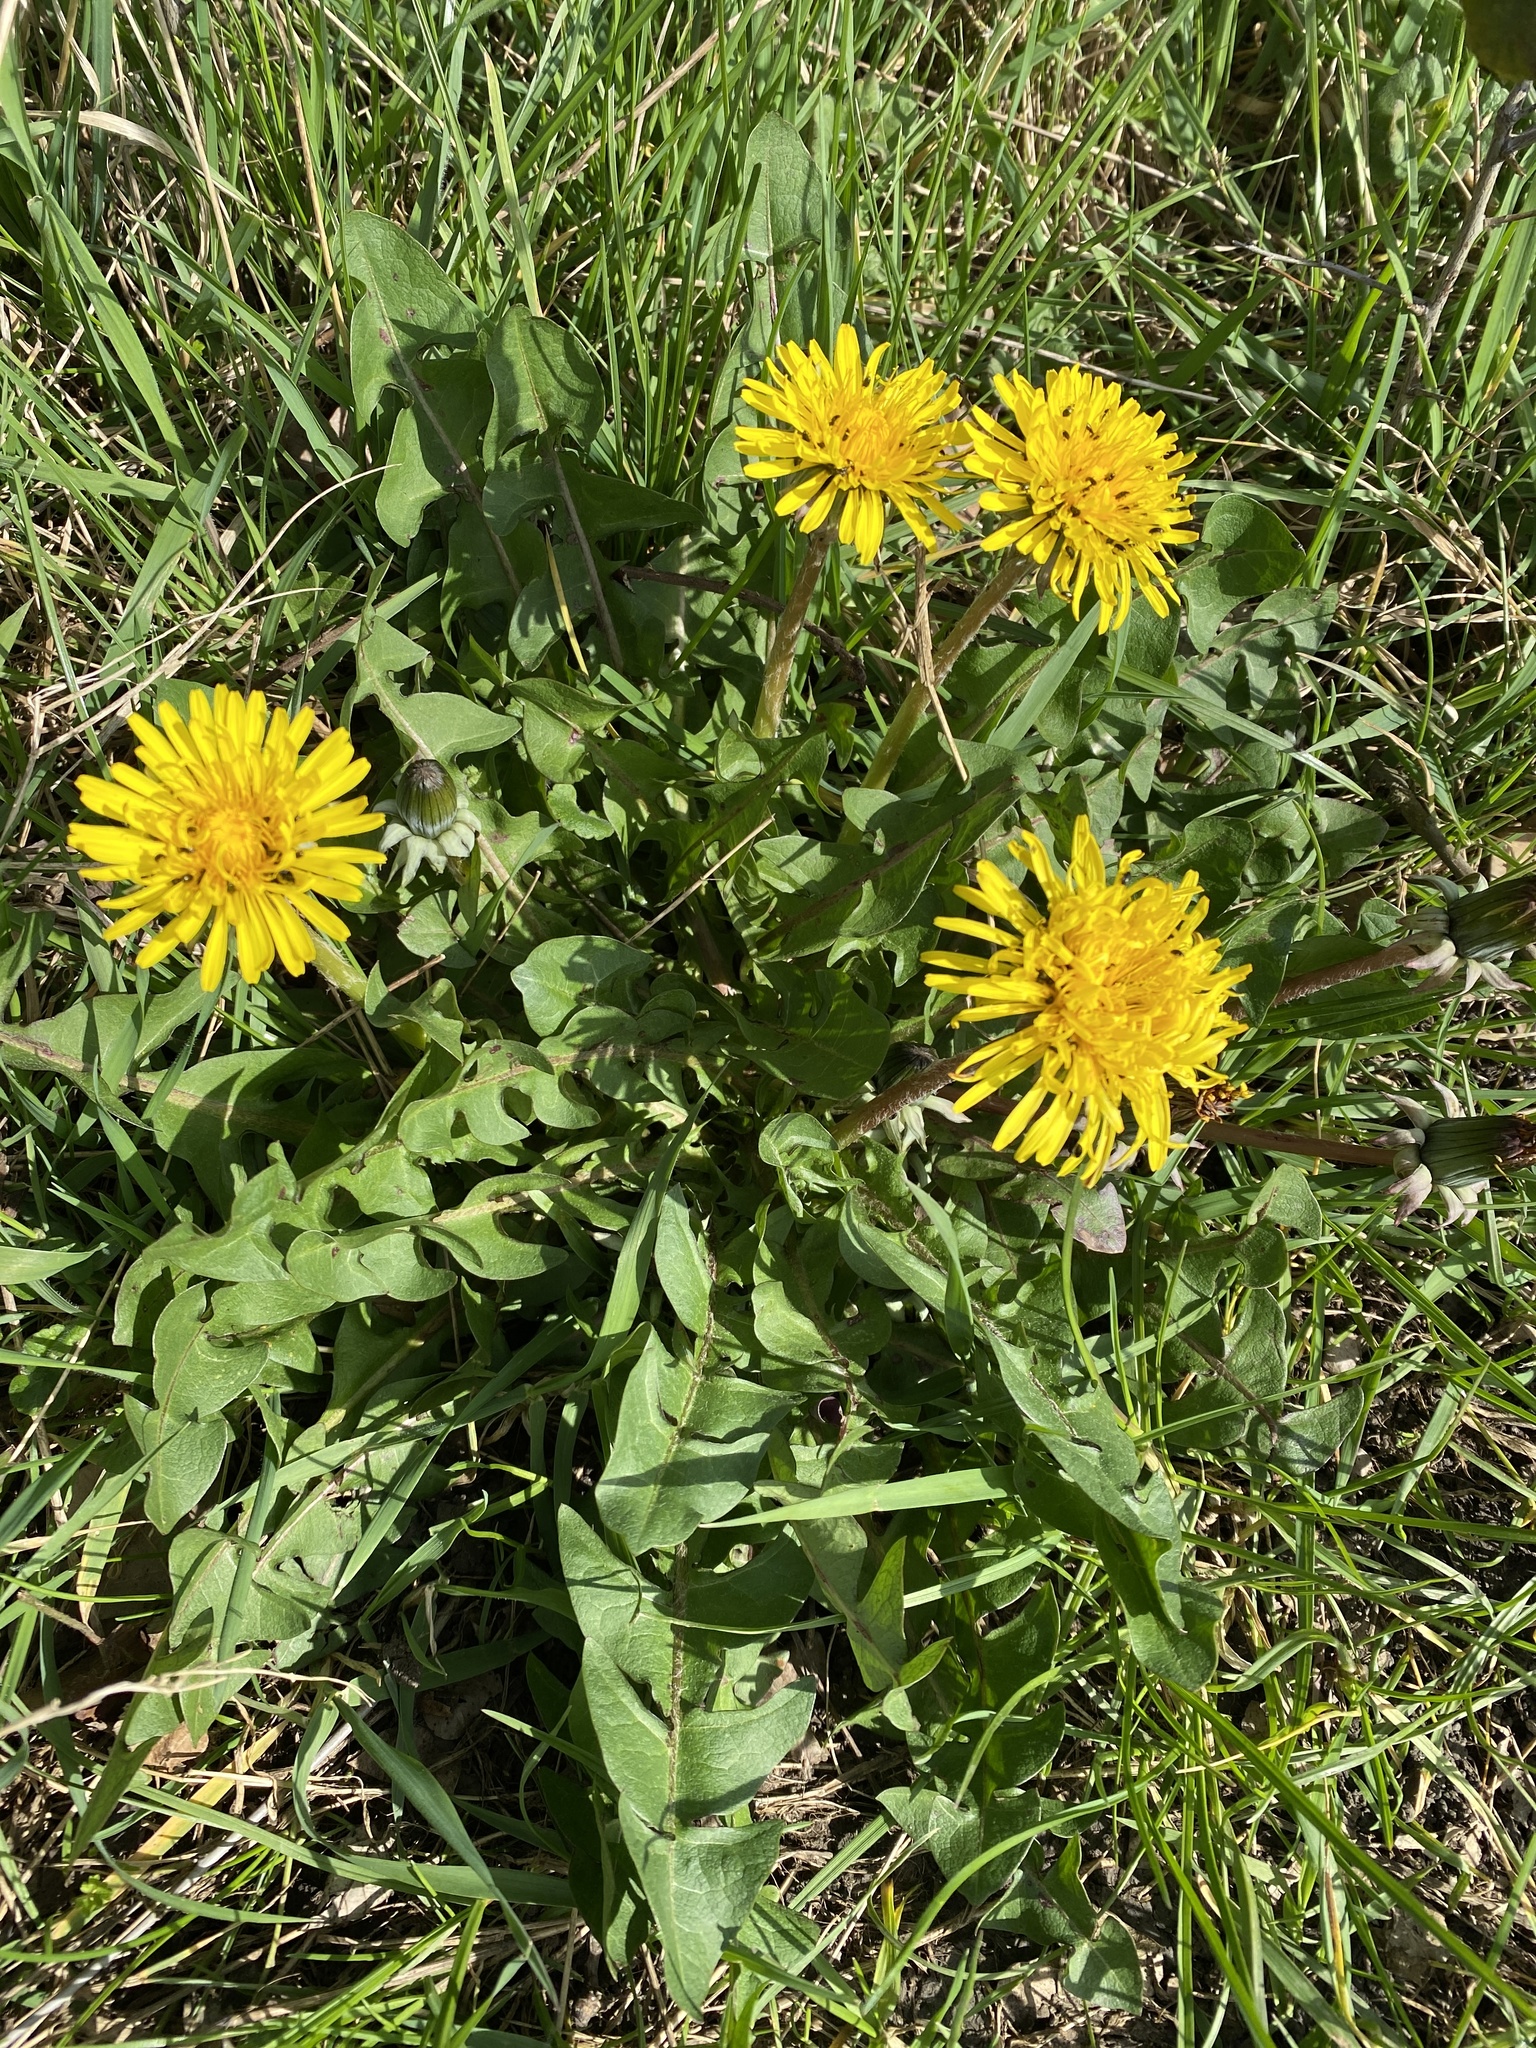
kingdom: Plantae
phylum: Tracheophyta
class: Magnoliopsida
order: Asterales
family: Asteraceae
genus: Taraxacum
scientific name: Taraxacum officinale
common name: Common dandelion
